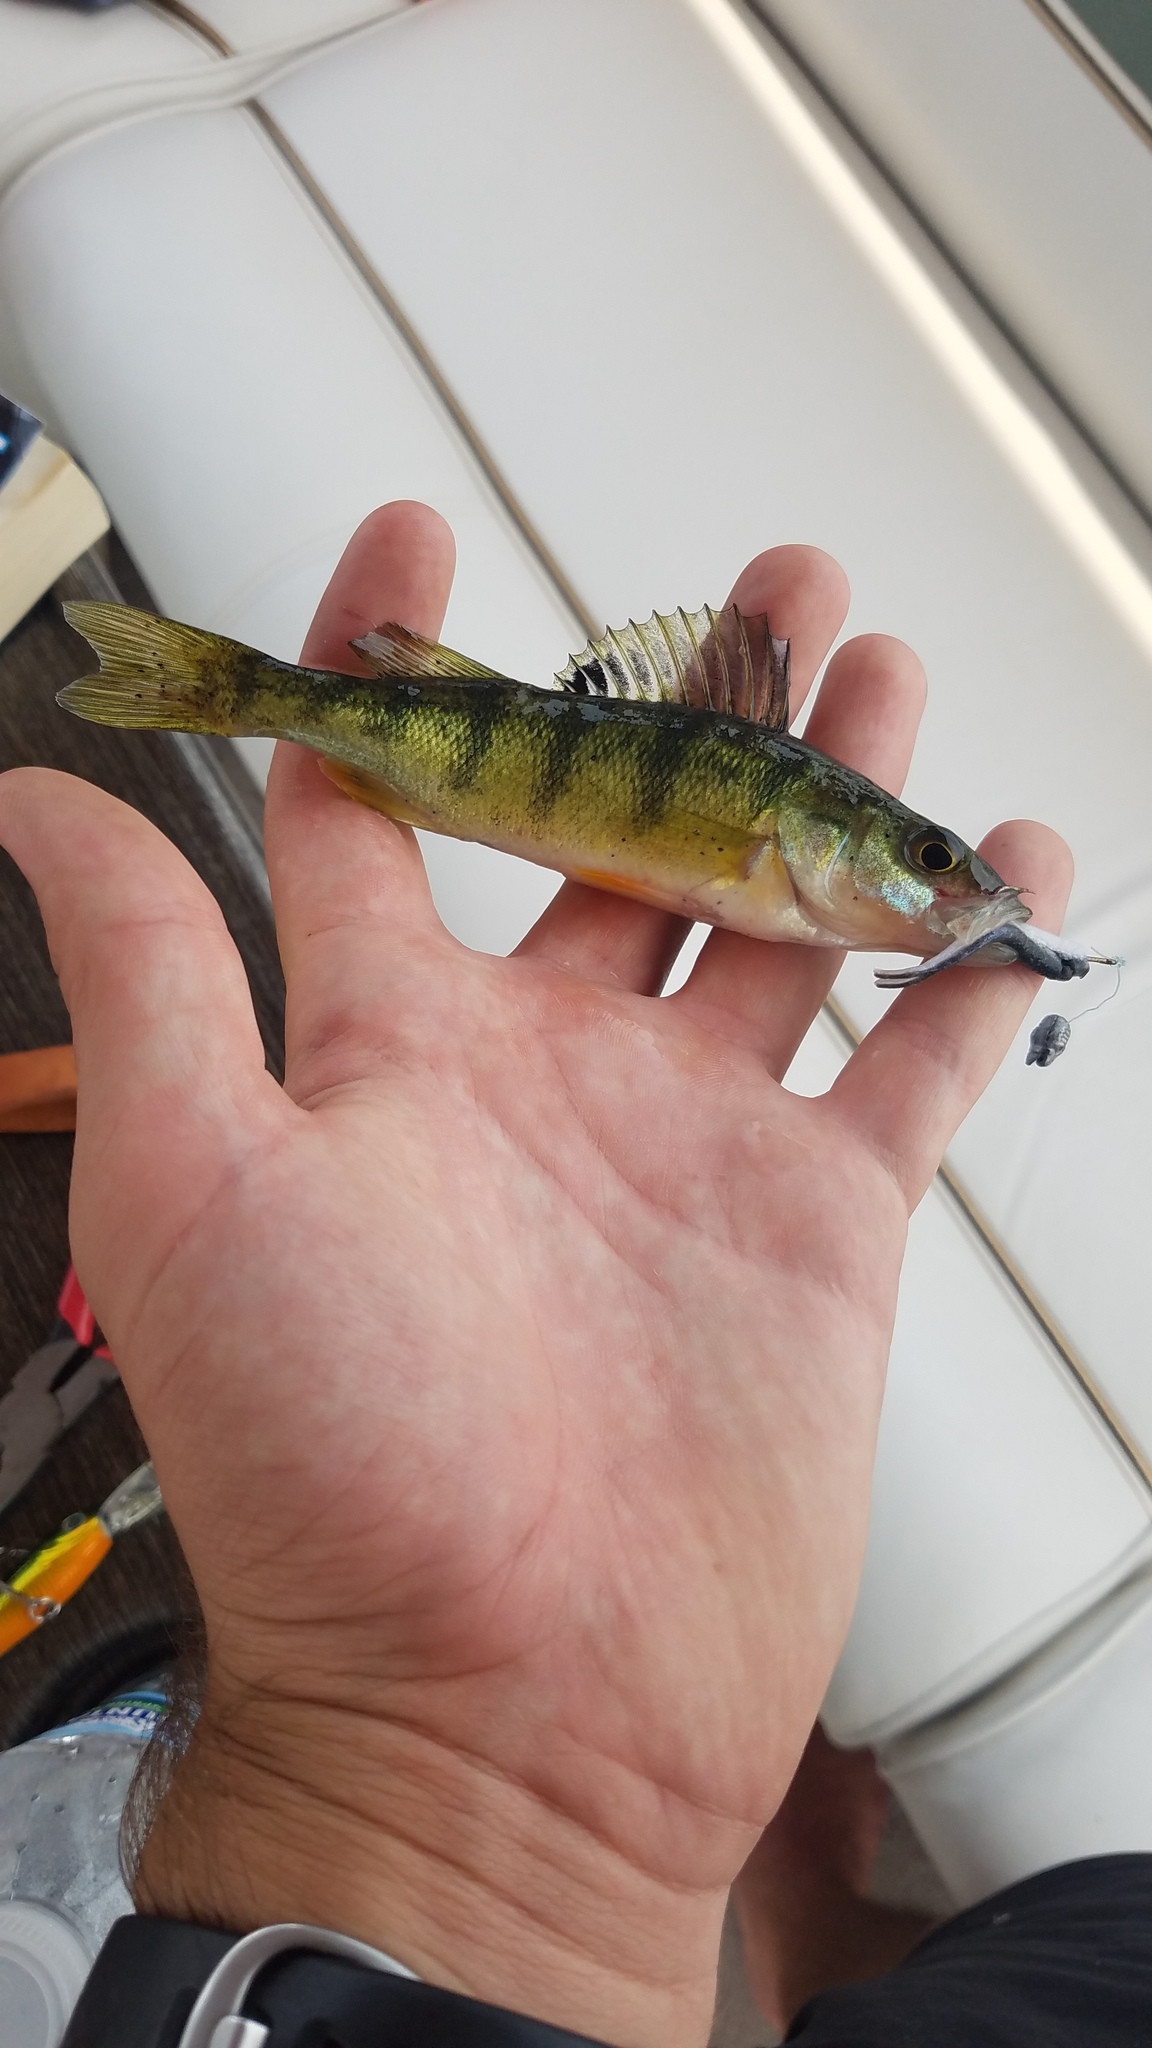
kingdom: Animalia
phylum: Chordata
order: Perciformes
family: Percidae
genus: Perca
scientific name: Perca flavescens
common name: Yellow perch
